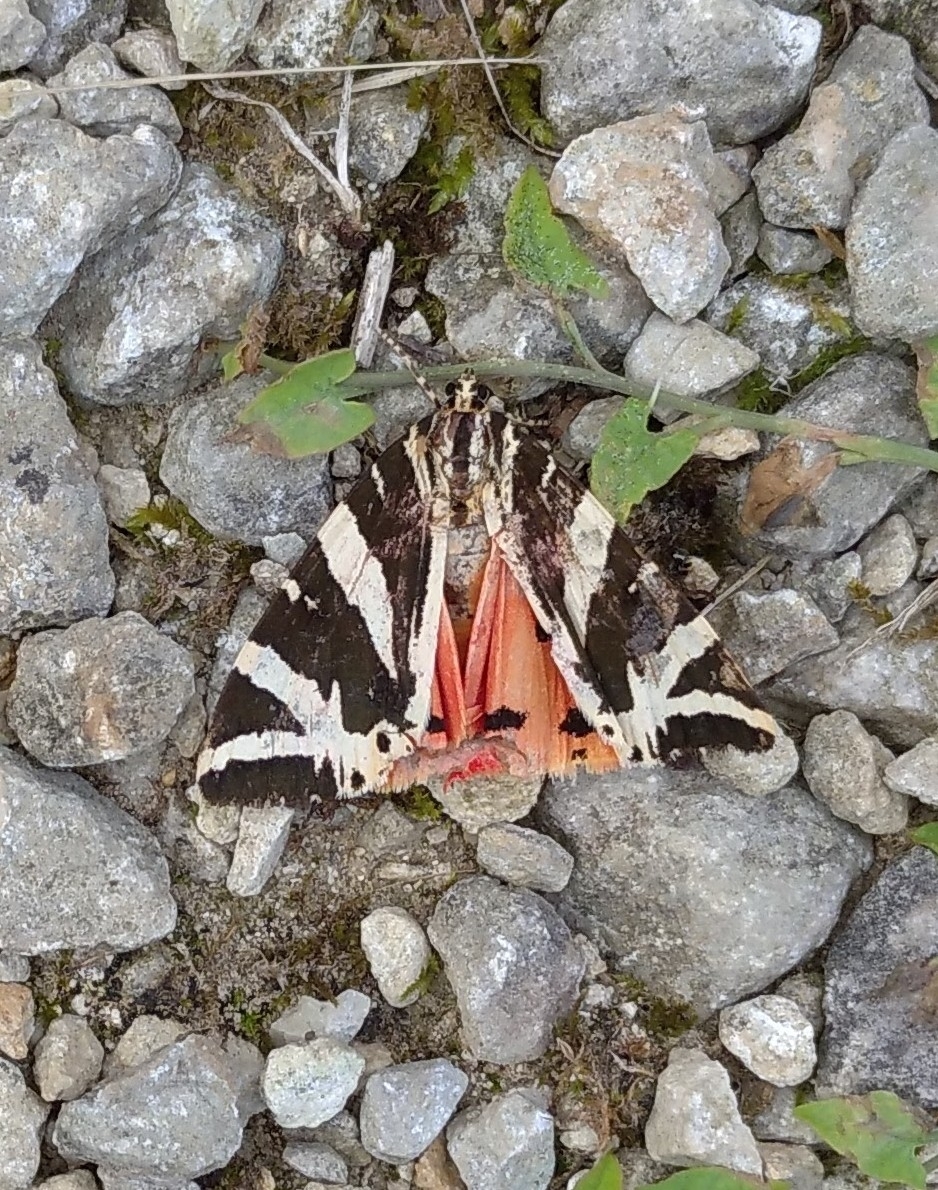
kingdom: Animalia
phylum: Arthropoda
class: Insecta
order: Lepidoptera
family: Erebidae
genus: Euplagia
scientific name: Euplagia quadripunctaria
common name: Jersey tiger
